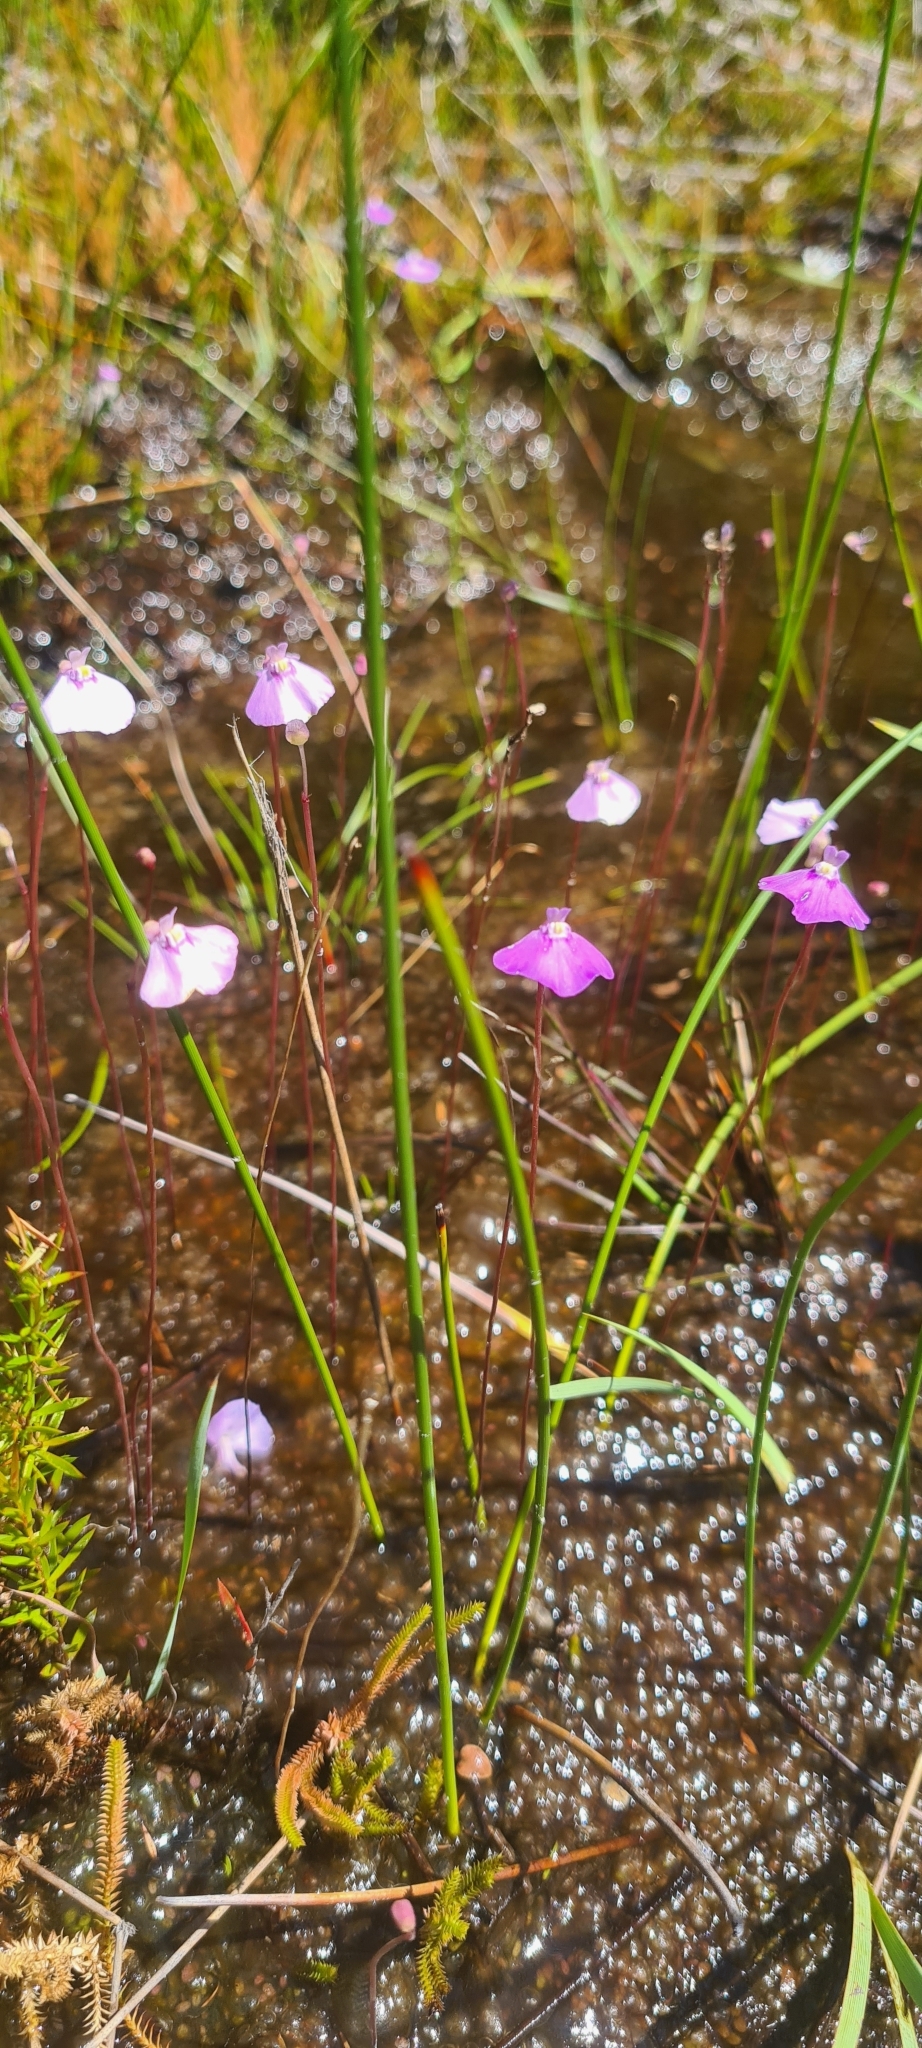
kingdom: Plantae
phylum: Tracheophyta
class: Magnoliopsida
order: Lamiales
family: Lentibulariaceae
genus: Utricularia
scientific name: Utricularia uniflora
